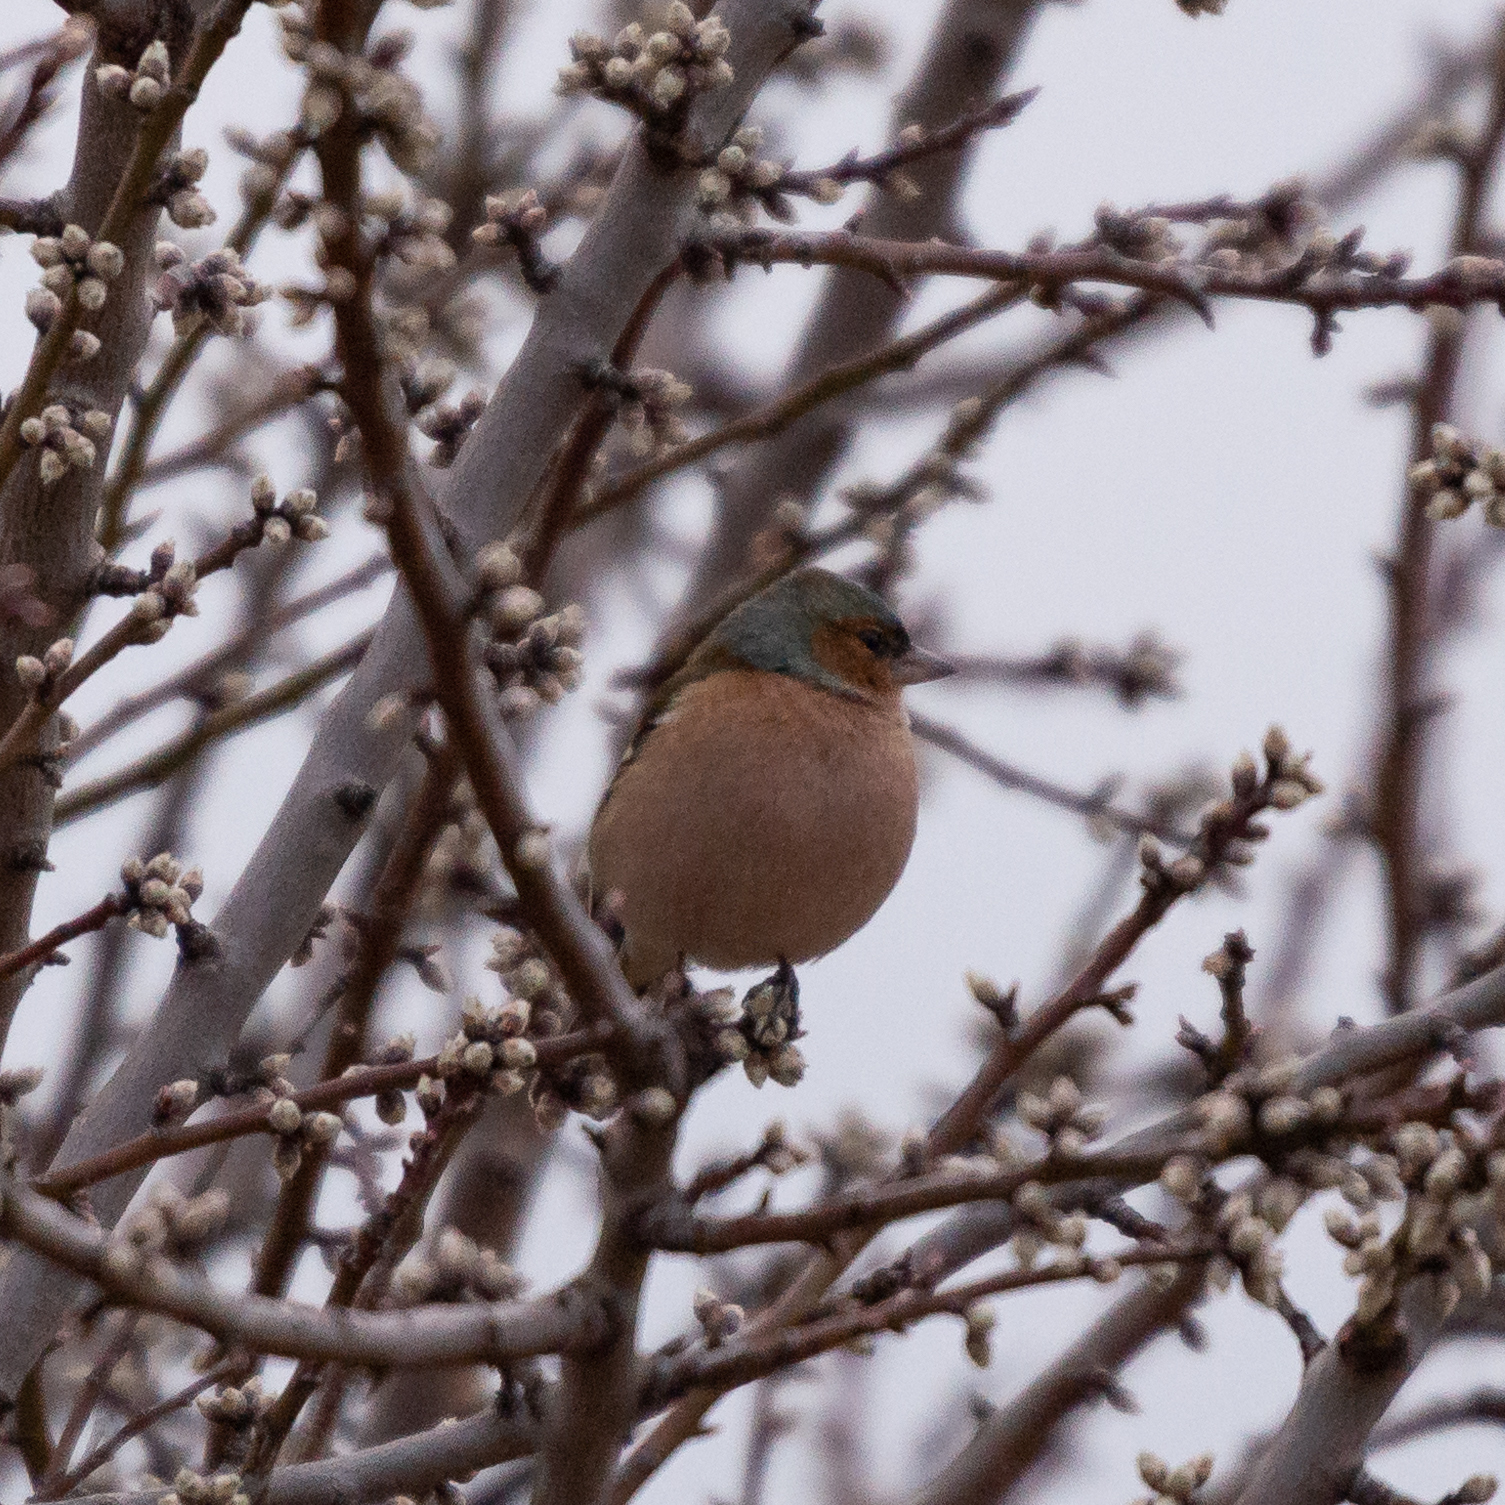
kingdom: Animalia
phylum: Chordata
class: Aves
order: Passeriformes
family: Fringillidae
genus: Fringilla
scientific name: Fringilla coelebs
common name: Common chaffinch
